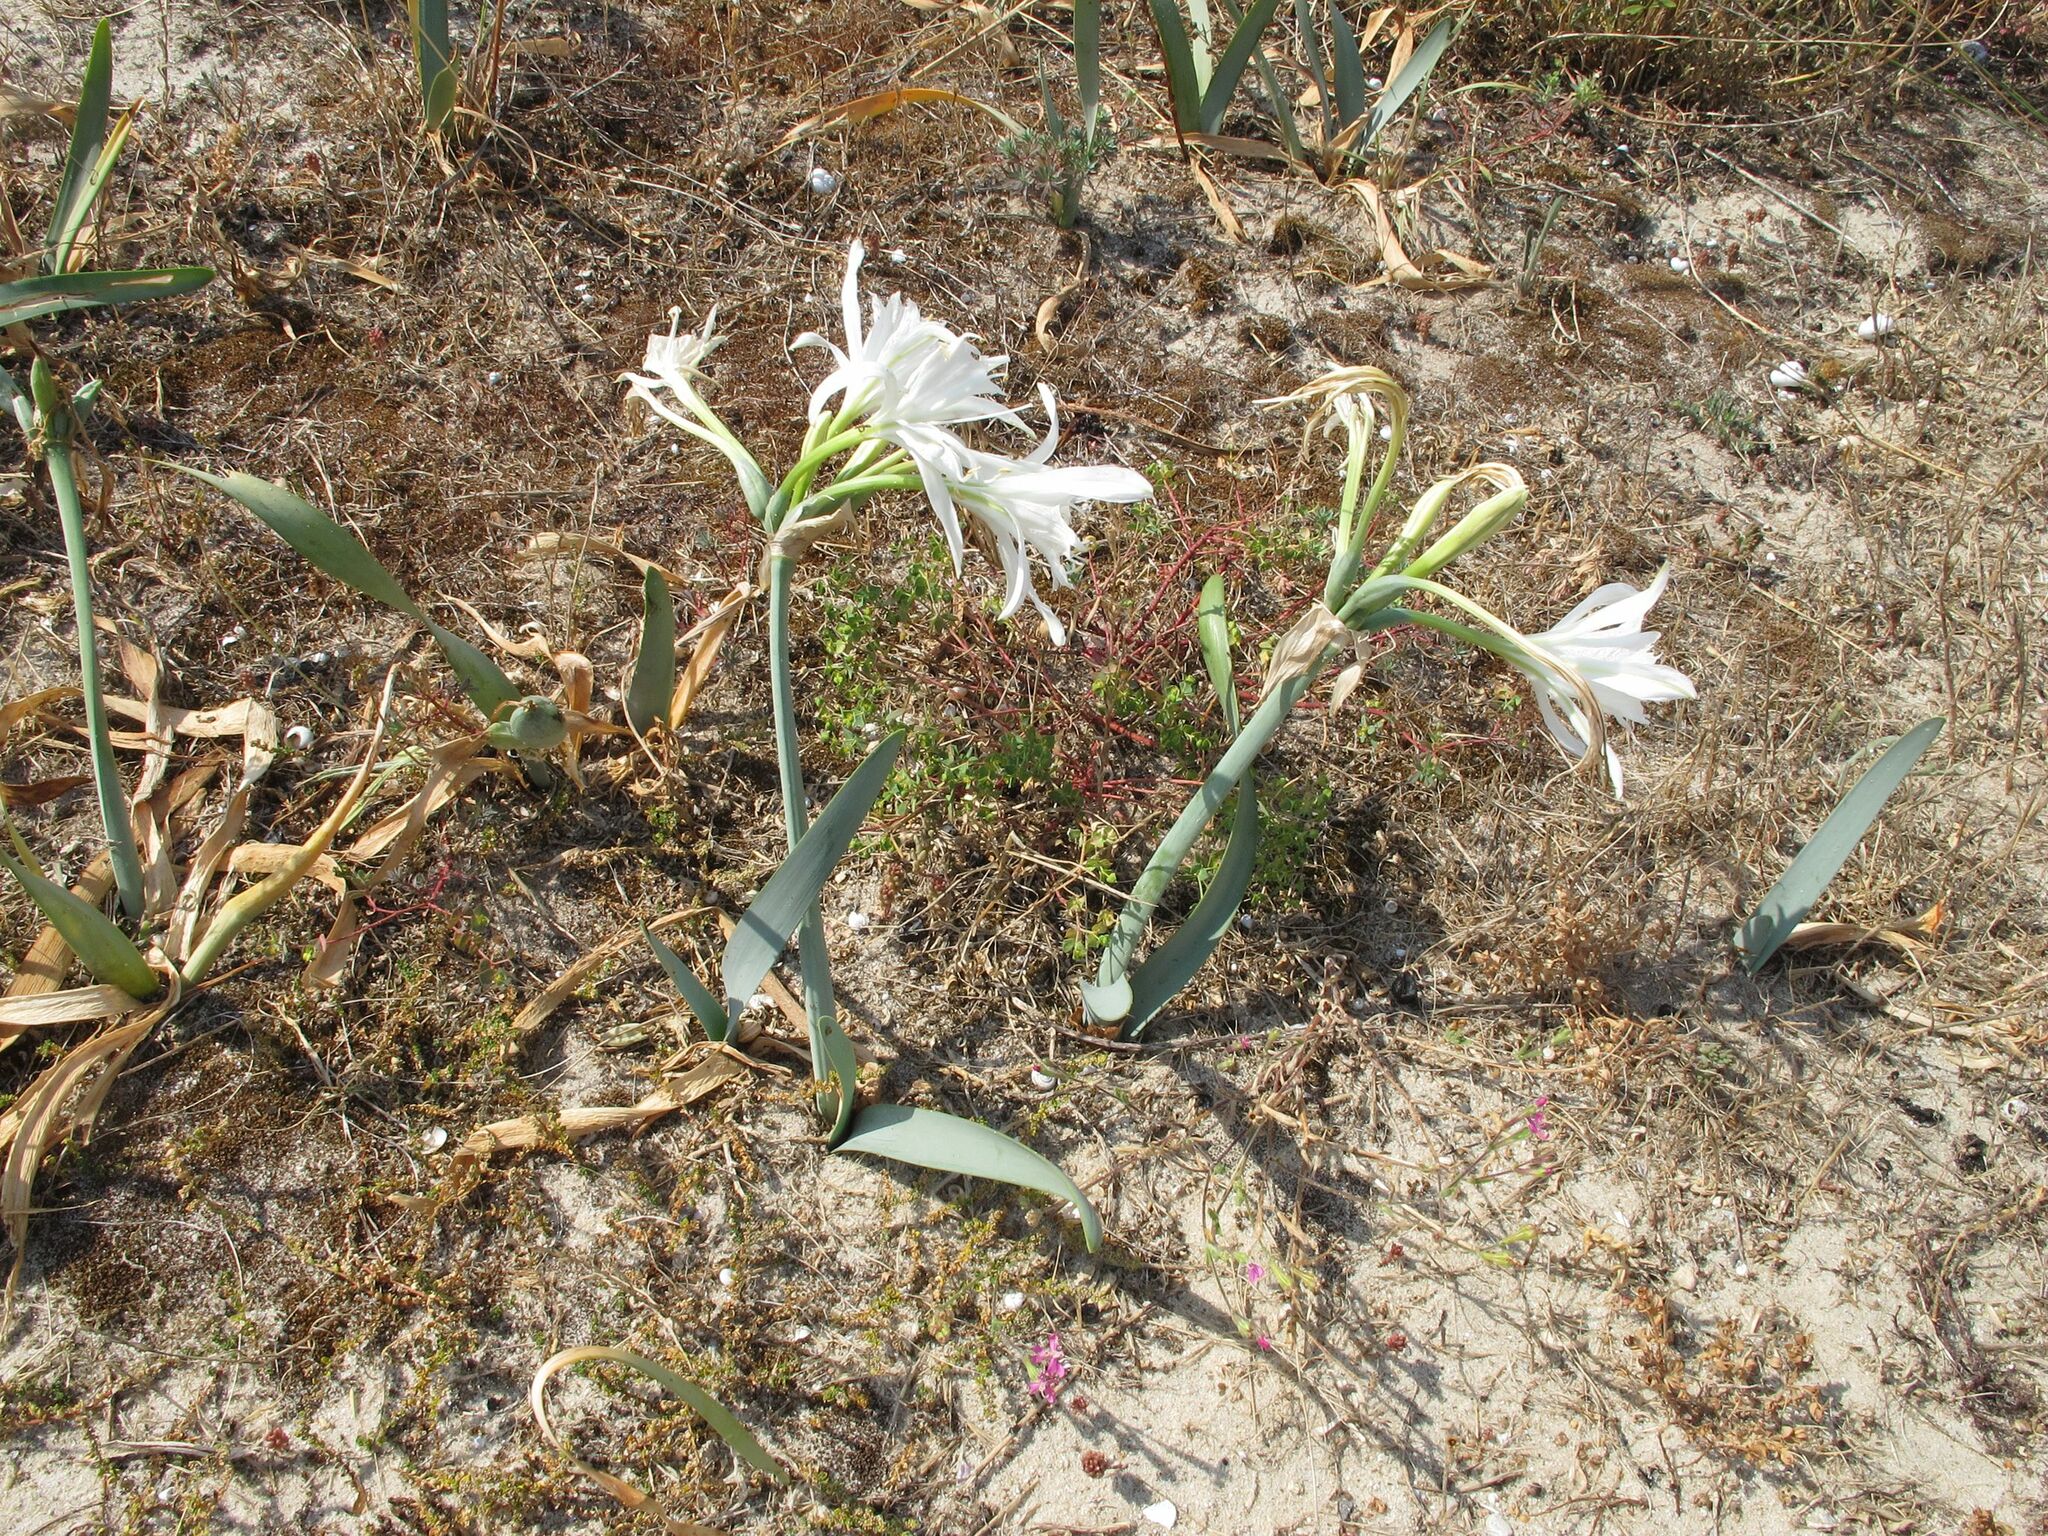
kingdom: Plantae
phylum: Tracheophyta
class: Liliopsida
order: Asparagales
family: Amaryllidaceae
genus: Pancratium
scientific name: Pancratium maritimum
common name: Sea-daffodil
